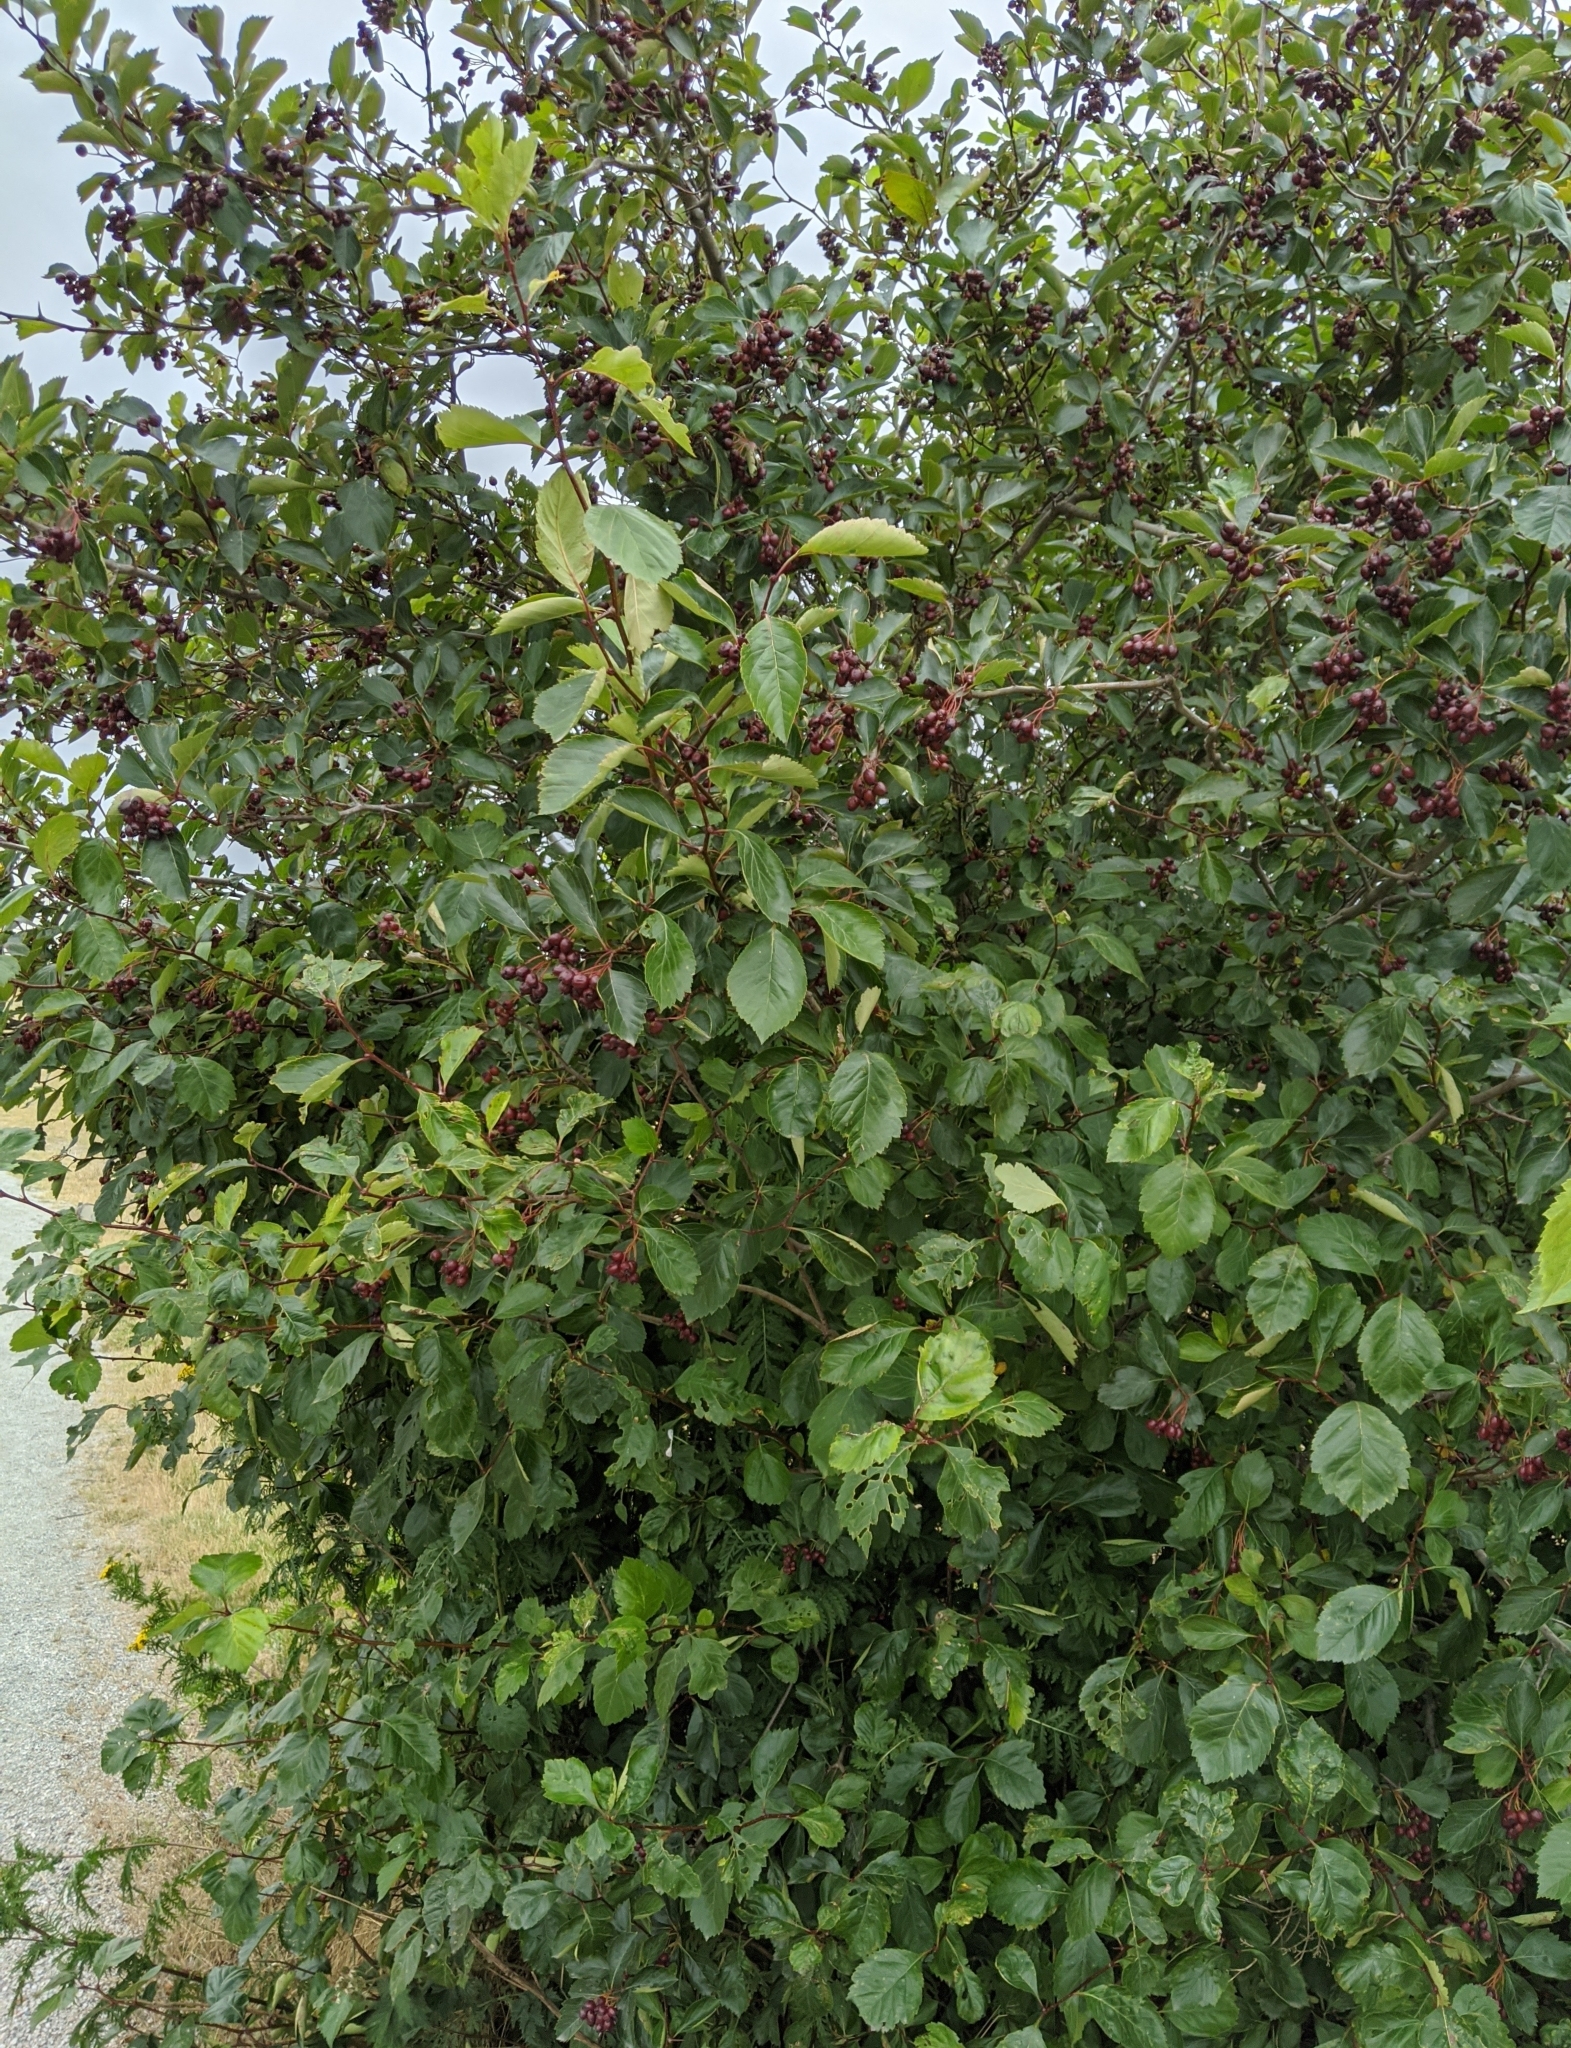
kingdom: Plantae
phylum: Tracheophyta
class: Magnoliopsida
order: Rosales
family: Rosaceae
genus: Crataegus
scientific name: Crataegus douglasii
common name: Black hawthorn
